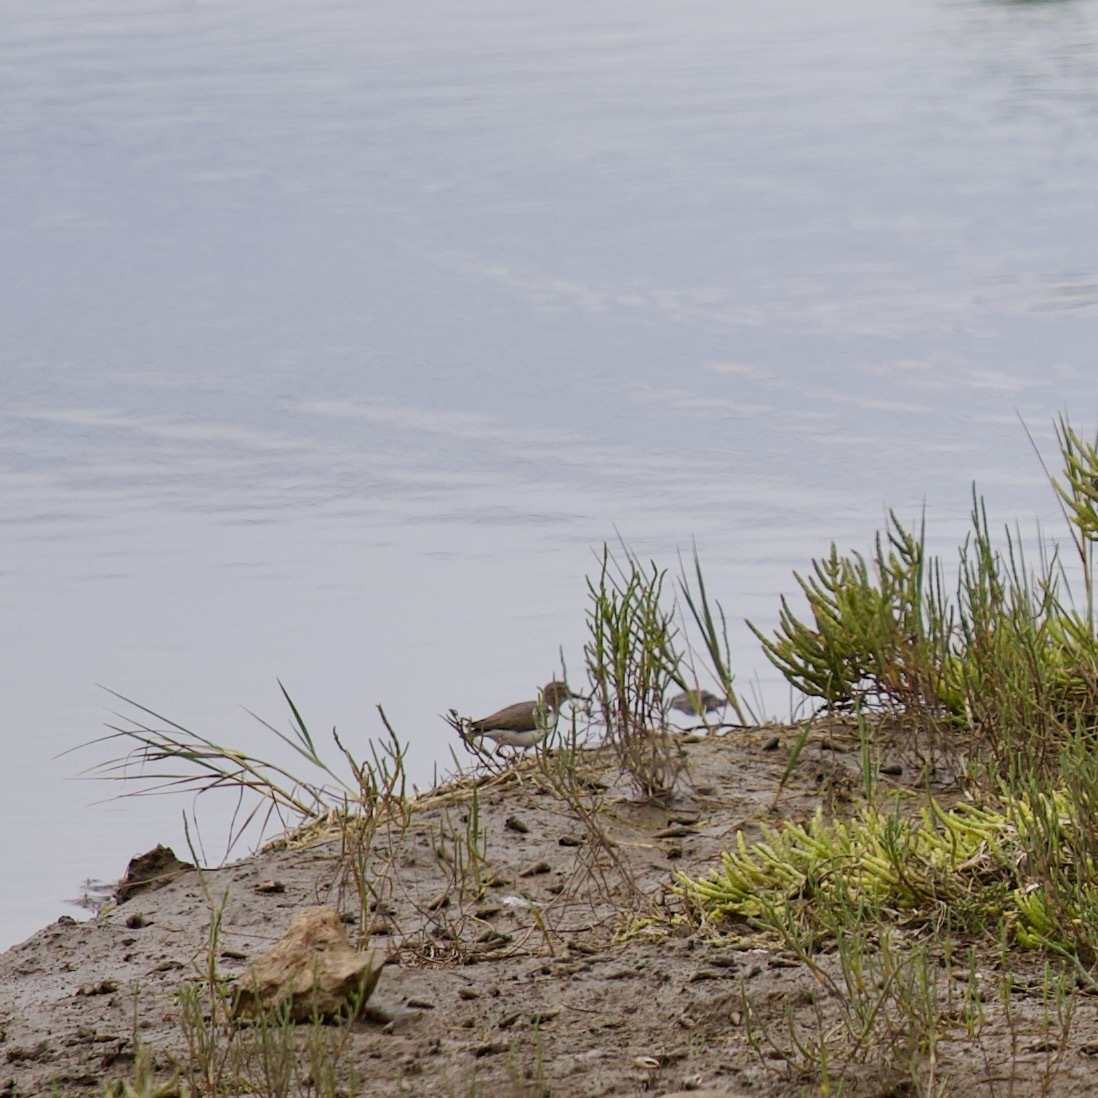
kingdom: Animalia
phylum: Chordata
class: Aves
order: Charadriiformes
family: Scolopacidae
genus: Actitis
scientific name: Actitis macularius
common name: Spotted sandpiper
